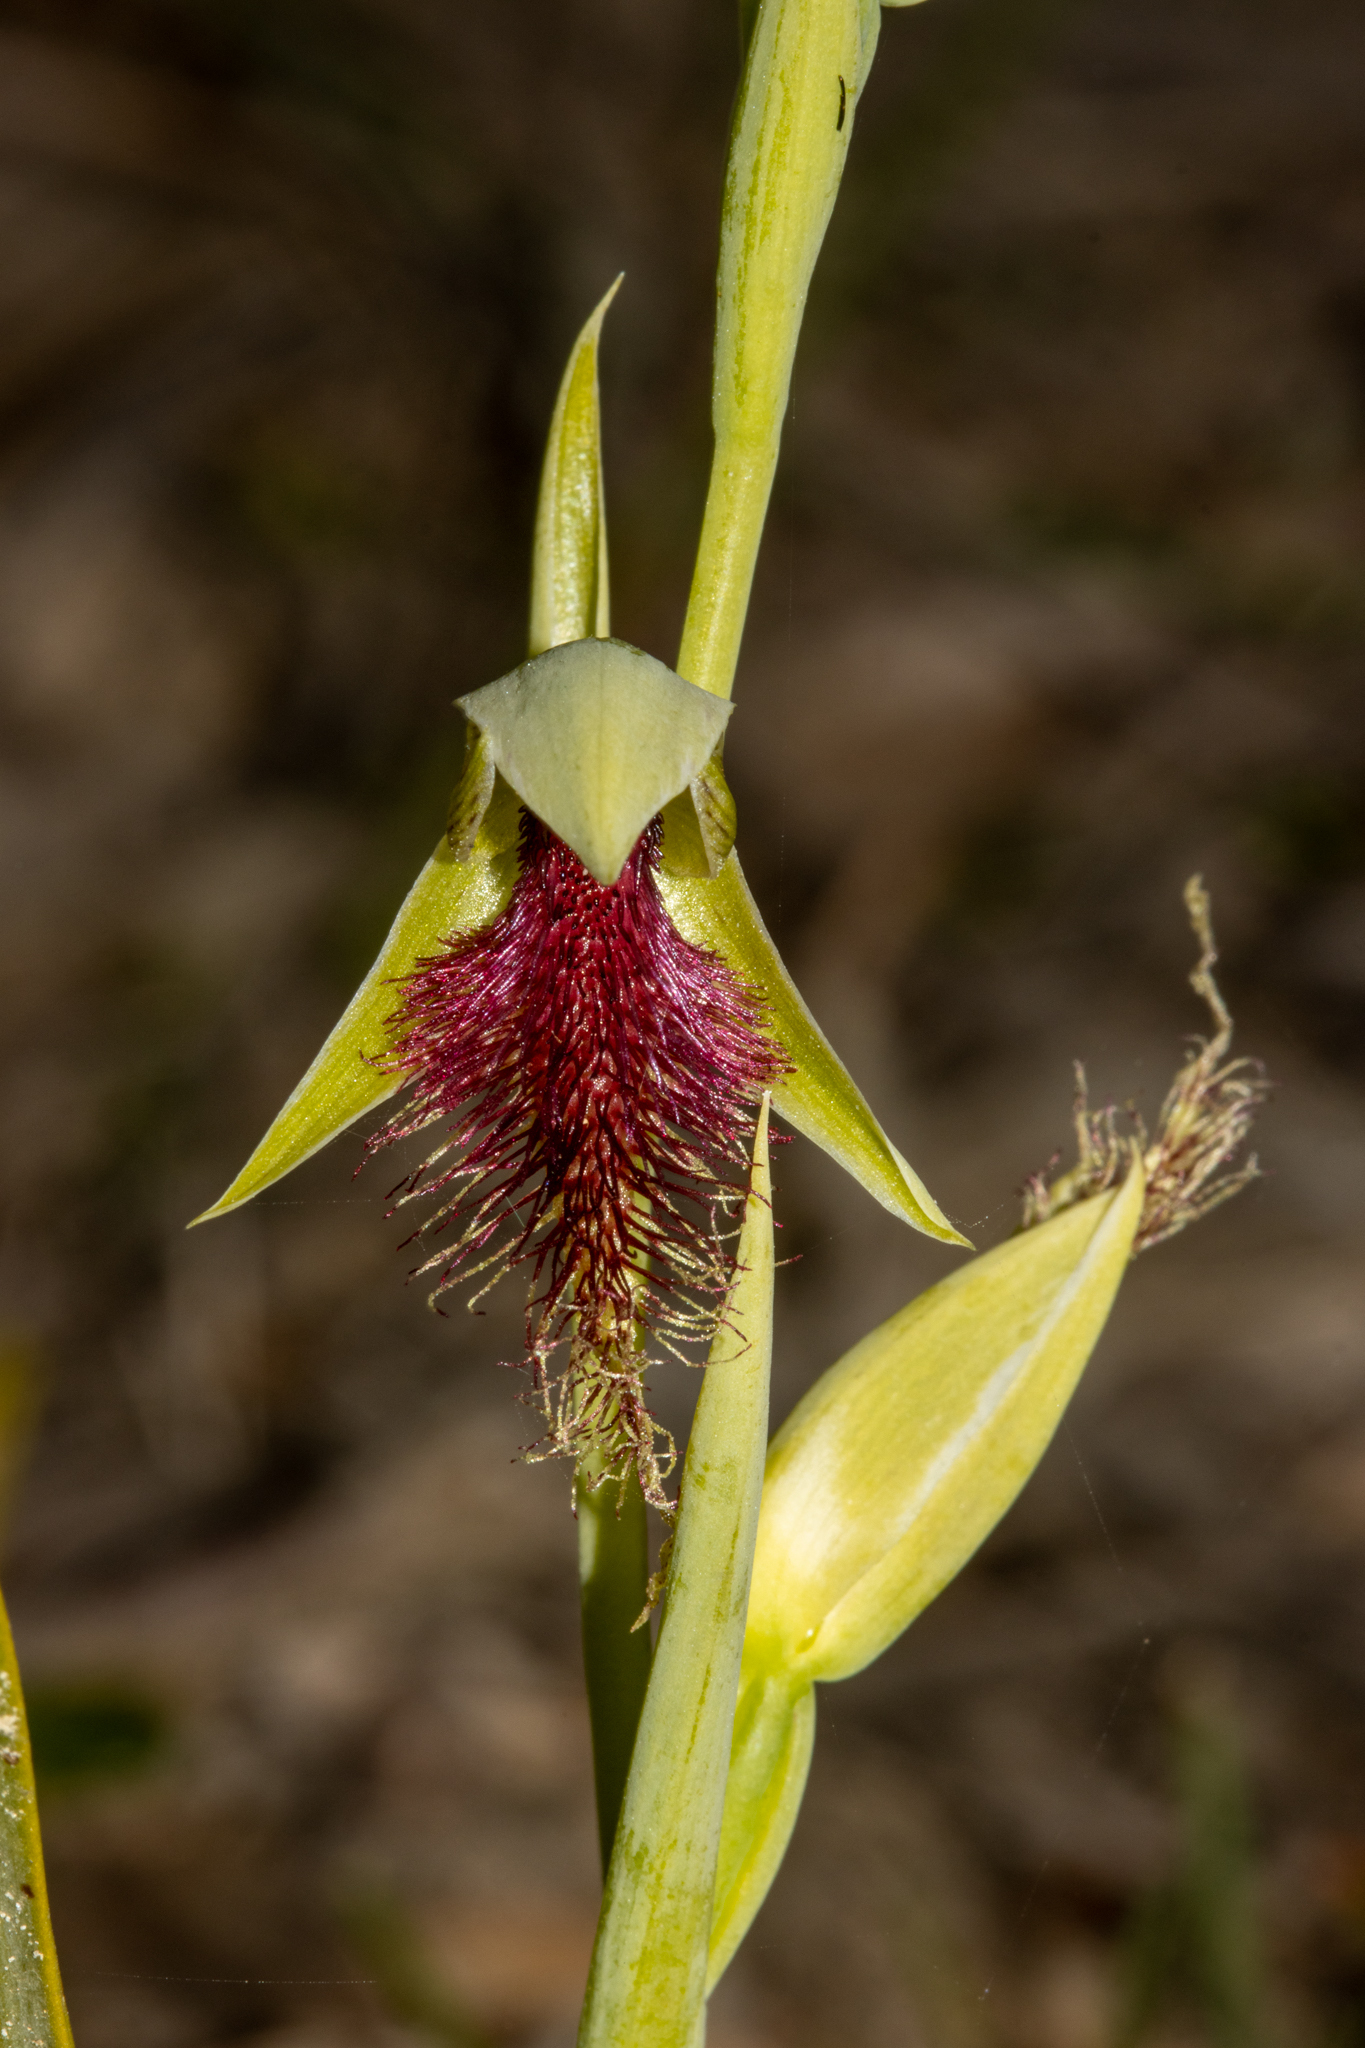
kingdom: Plantae
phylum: Tracheophyta
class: Liliopsida
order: Asparagales
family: Orchidaceae
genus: Calochilus
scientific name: Calochilus robertsonii
